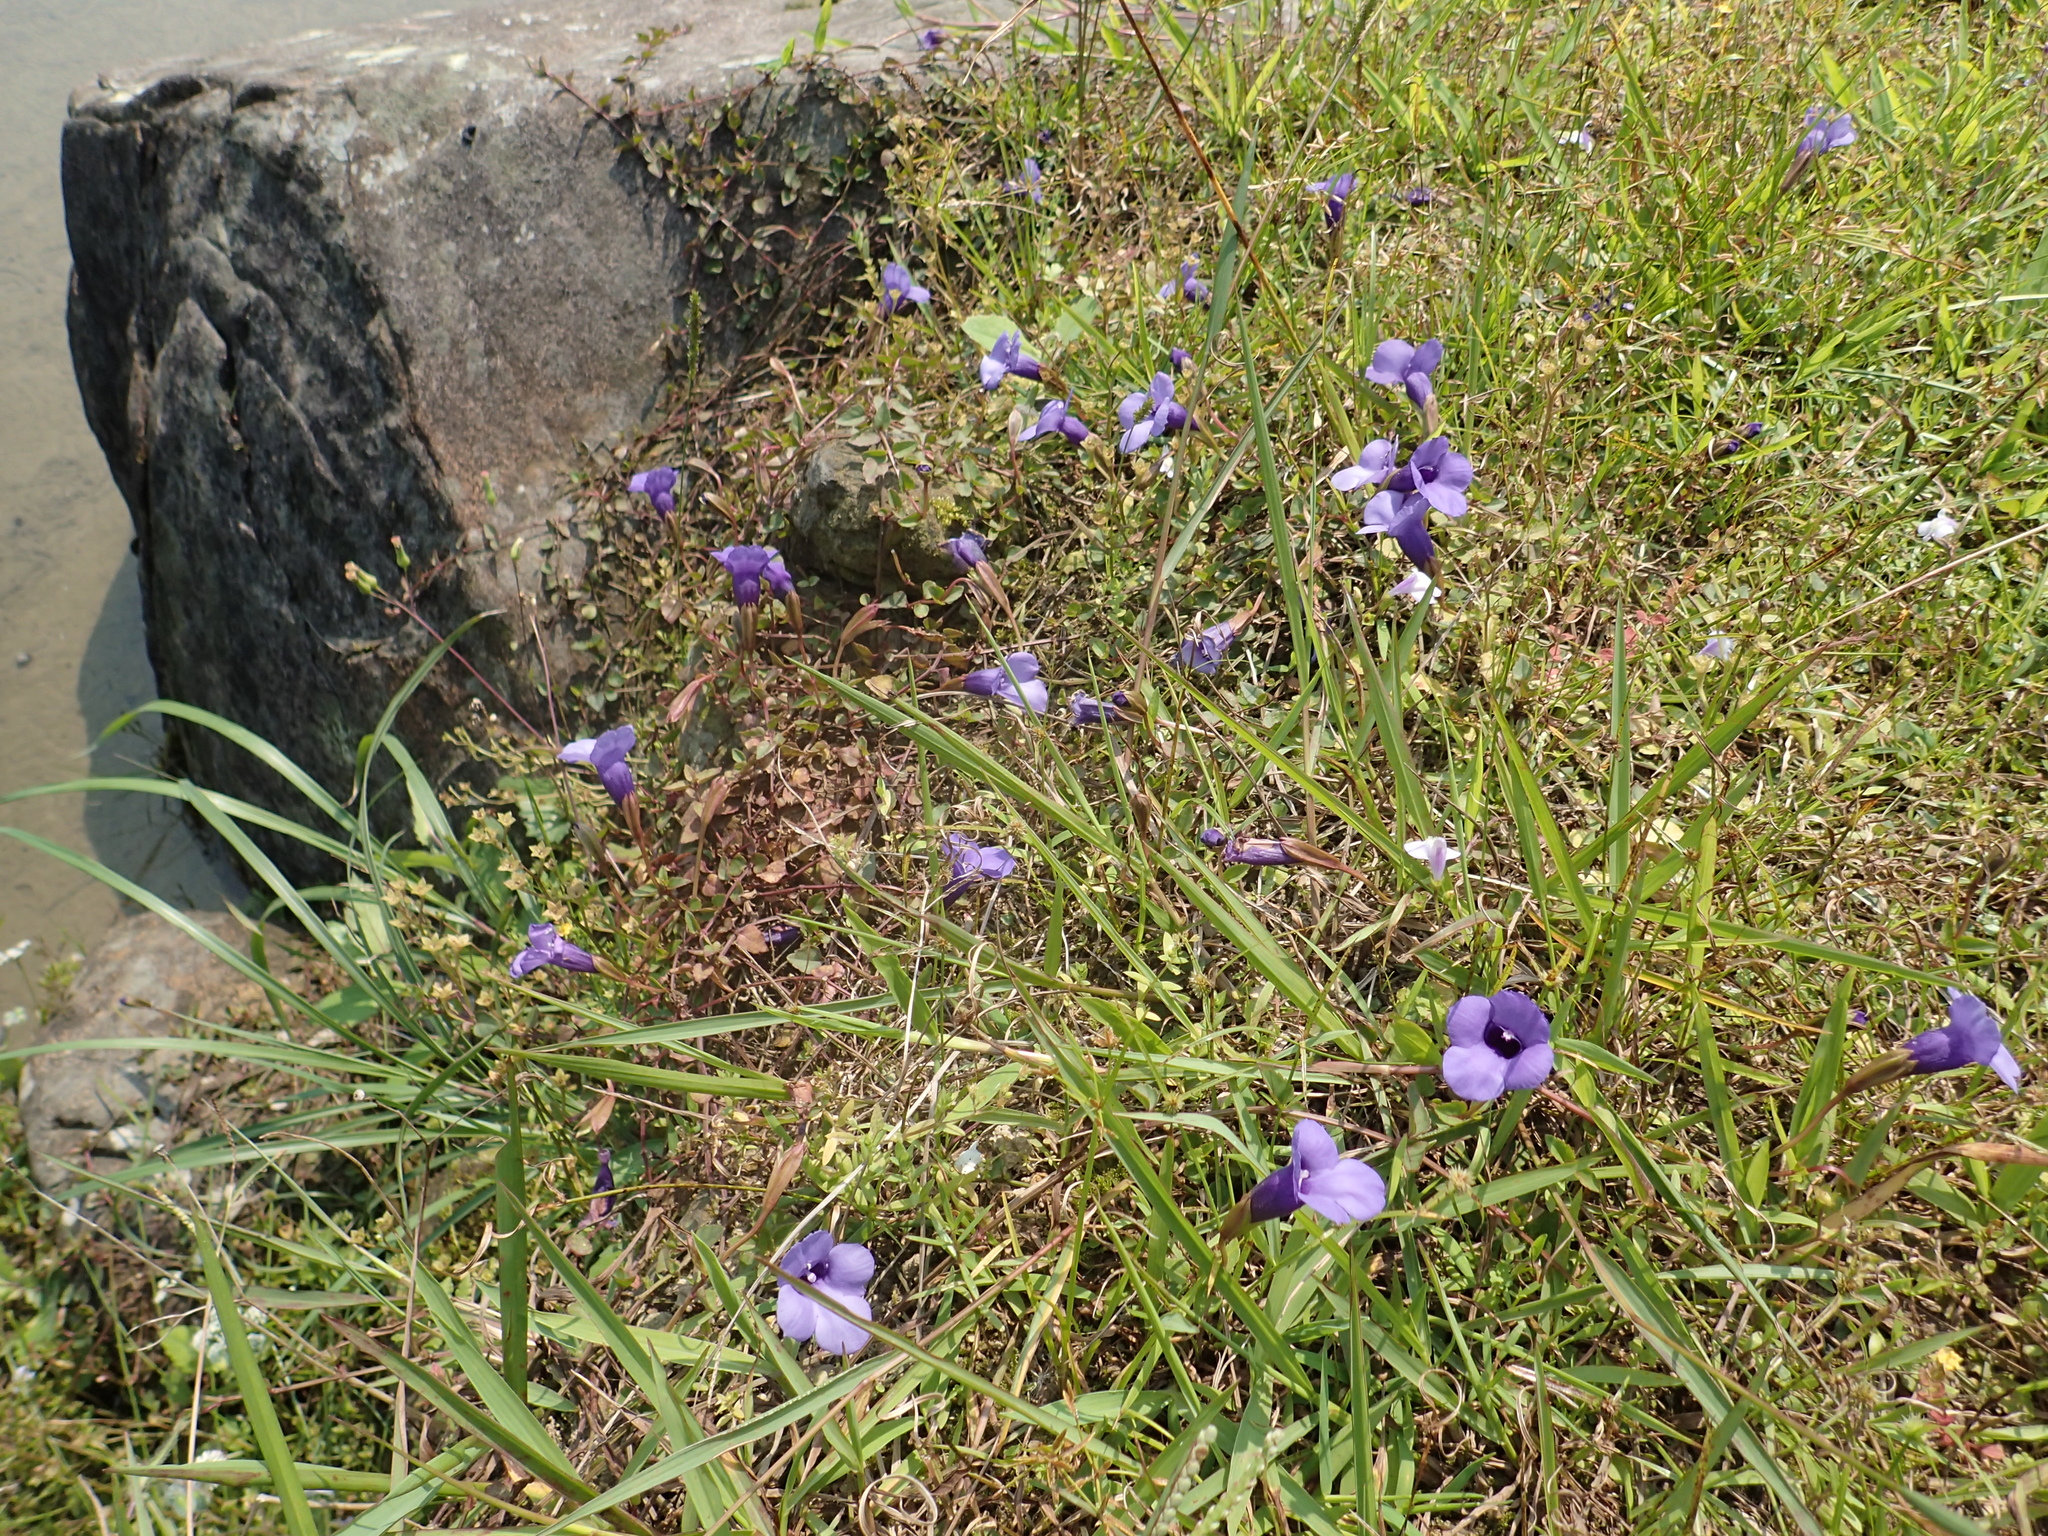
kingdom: Plantae
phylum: Tracheophyta
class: Magnoliopsida
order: Lamiales
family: Linderniaceae
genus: Torenia
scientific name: Torenia concolor
